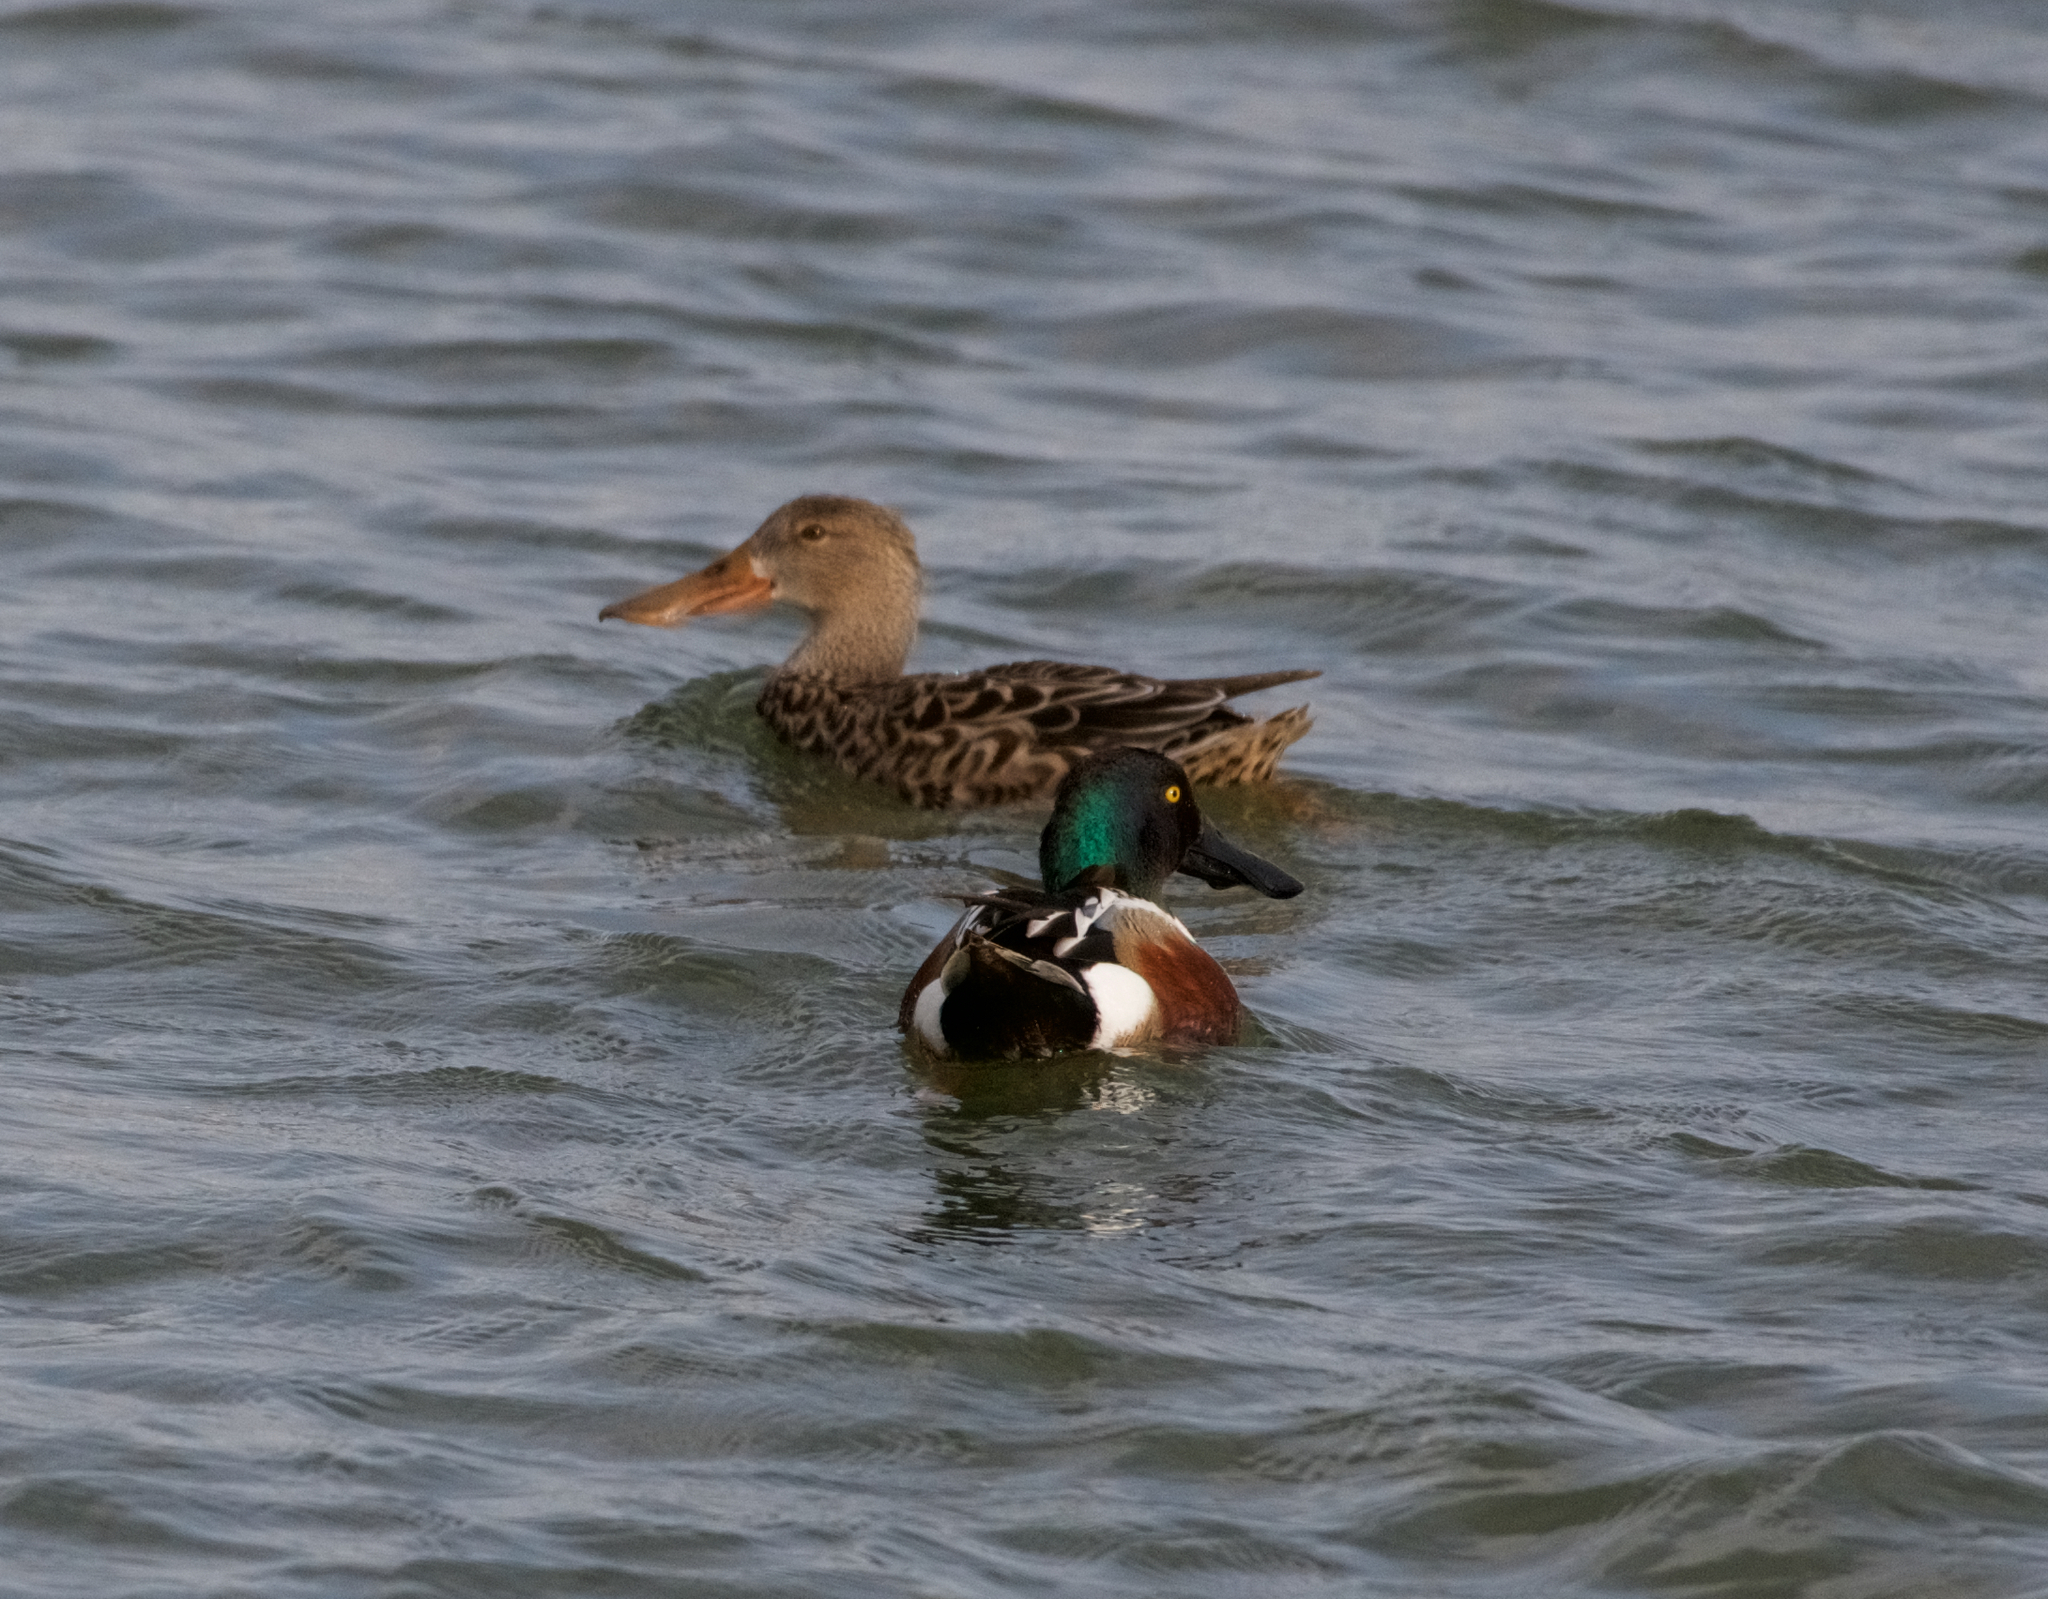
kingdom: Animalia
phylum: Chordata
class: Aves
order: Anseriformes
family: Anatidae
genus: Spatula
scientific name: Spatula clypeata
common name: Northern shoveler
